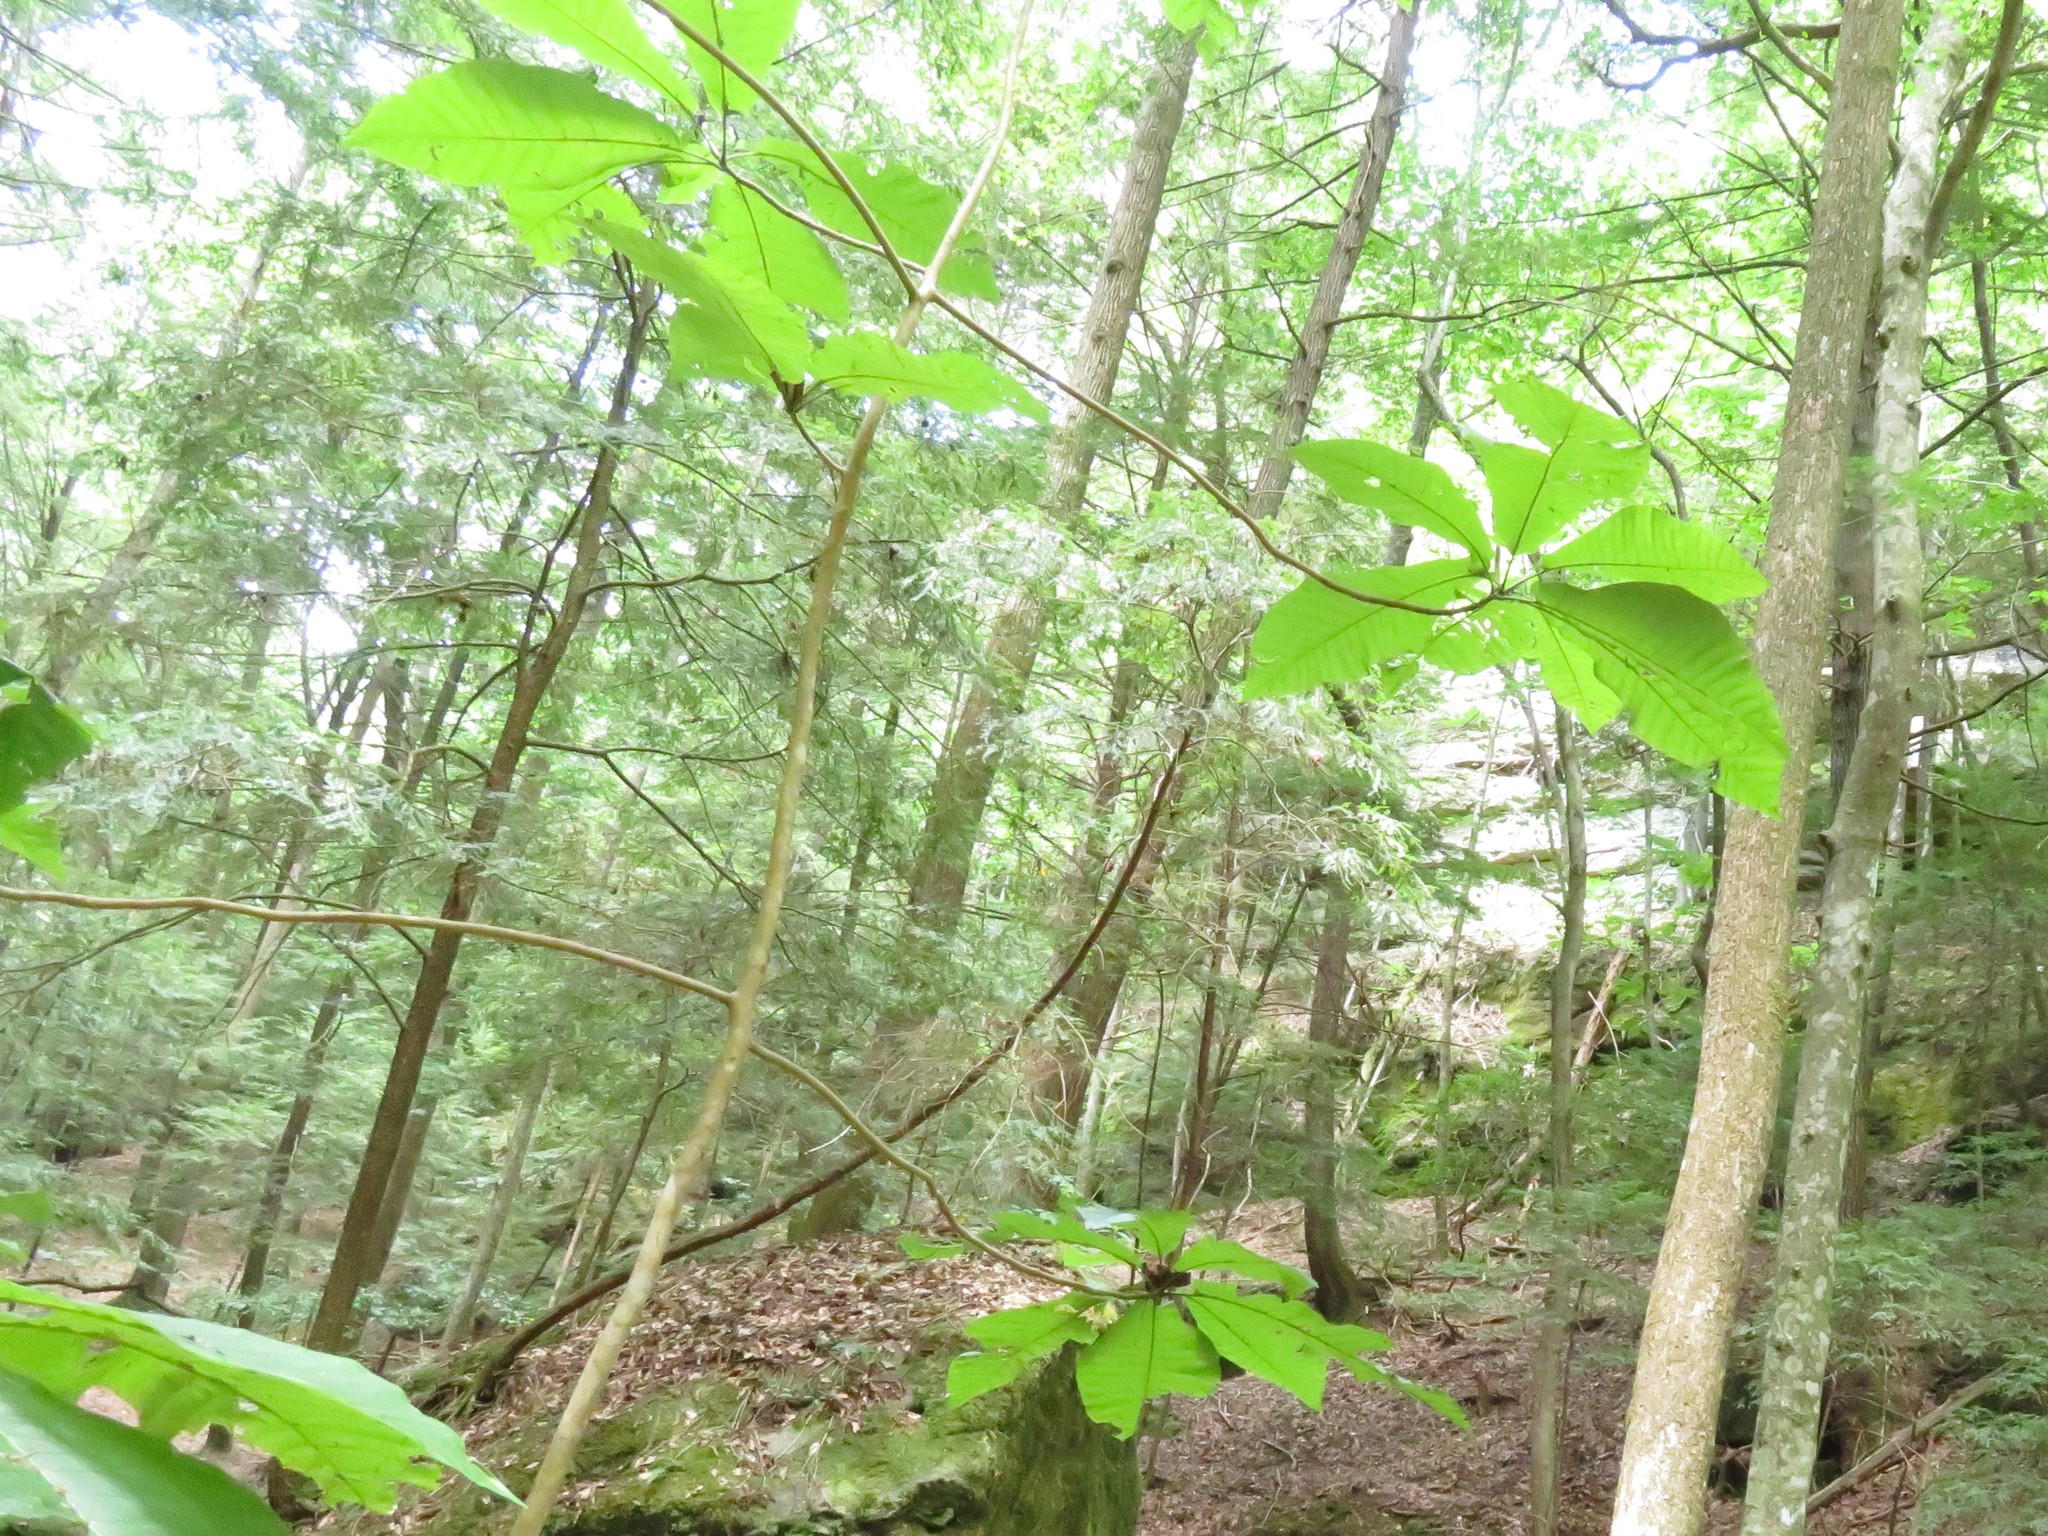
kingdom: Plantae
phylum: Tracheophyta
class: Magnoliopsida
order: Magnoliales
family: Magnoliaceae
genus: Magnolia
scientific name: Magnolia macrophylla
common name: Big-leaf magnolia
